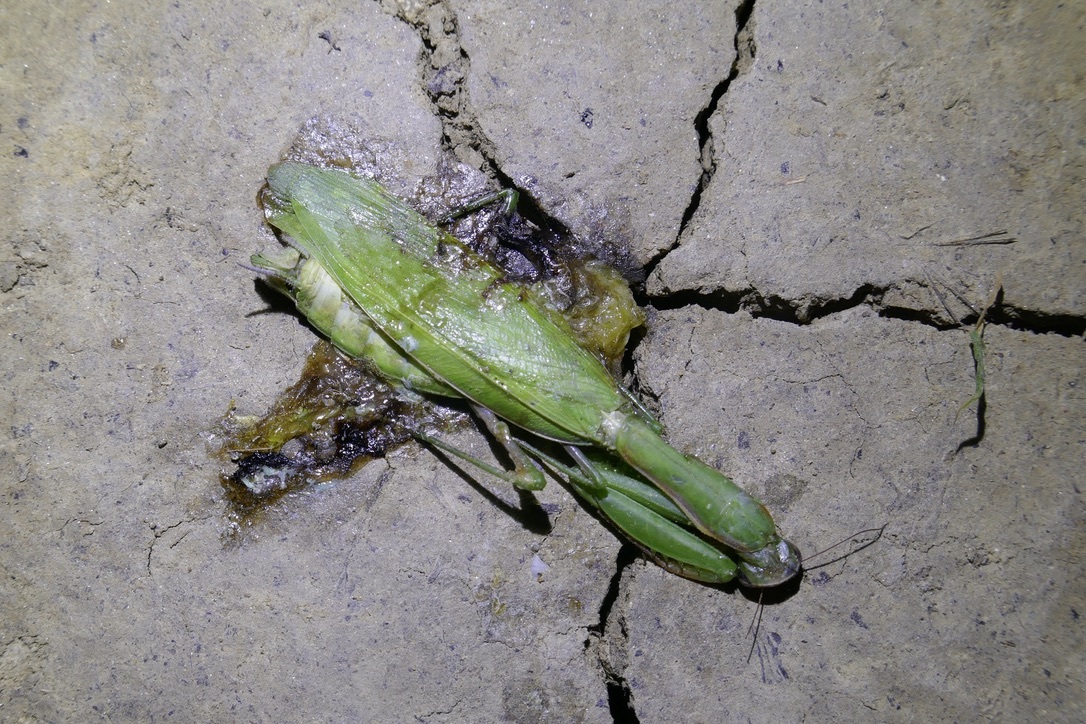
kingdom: Animalia
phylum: Arthropoda
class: Insecta
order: Mantodea
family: Mantidae
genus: Mantis
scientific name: Mantis religiosa
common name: Praying mantis
